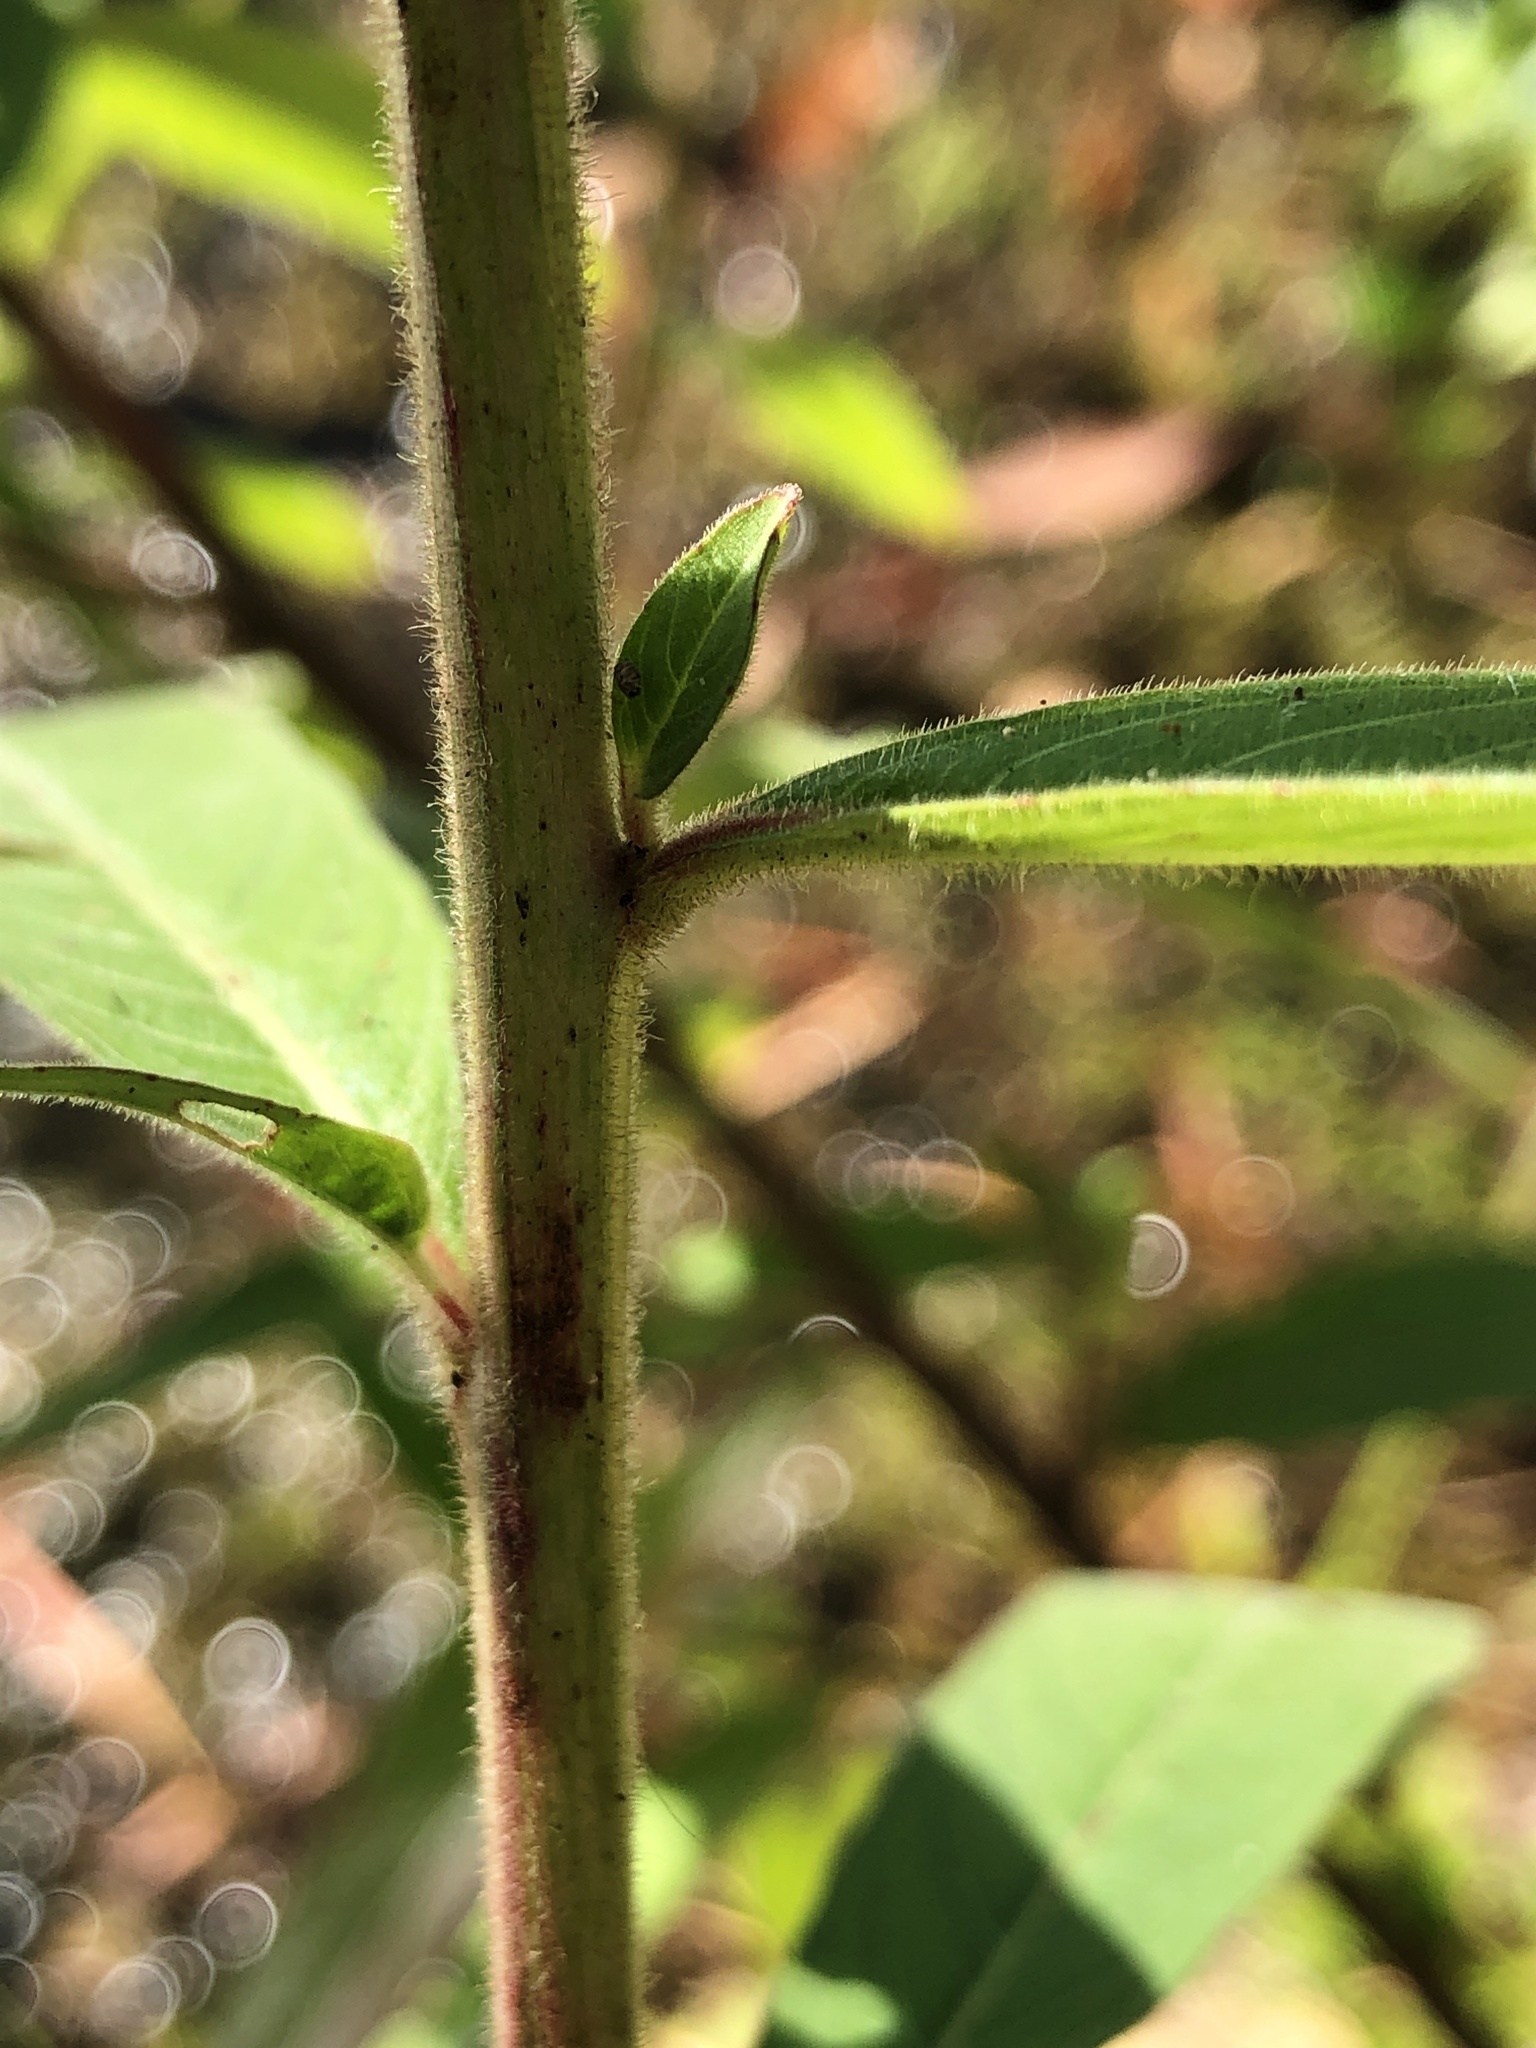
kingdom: Plantae
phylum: Tracheophyta
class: Magnoliopsida
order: Myrtales
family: Onagraceae
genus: Ludwigia
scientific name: Ludwigia octovalvis
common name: Water-primrose
